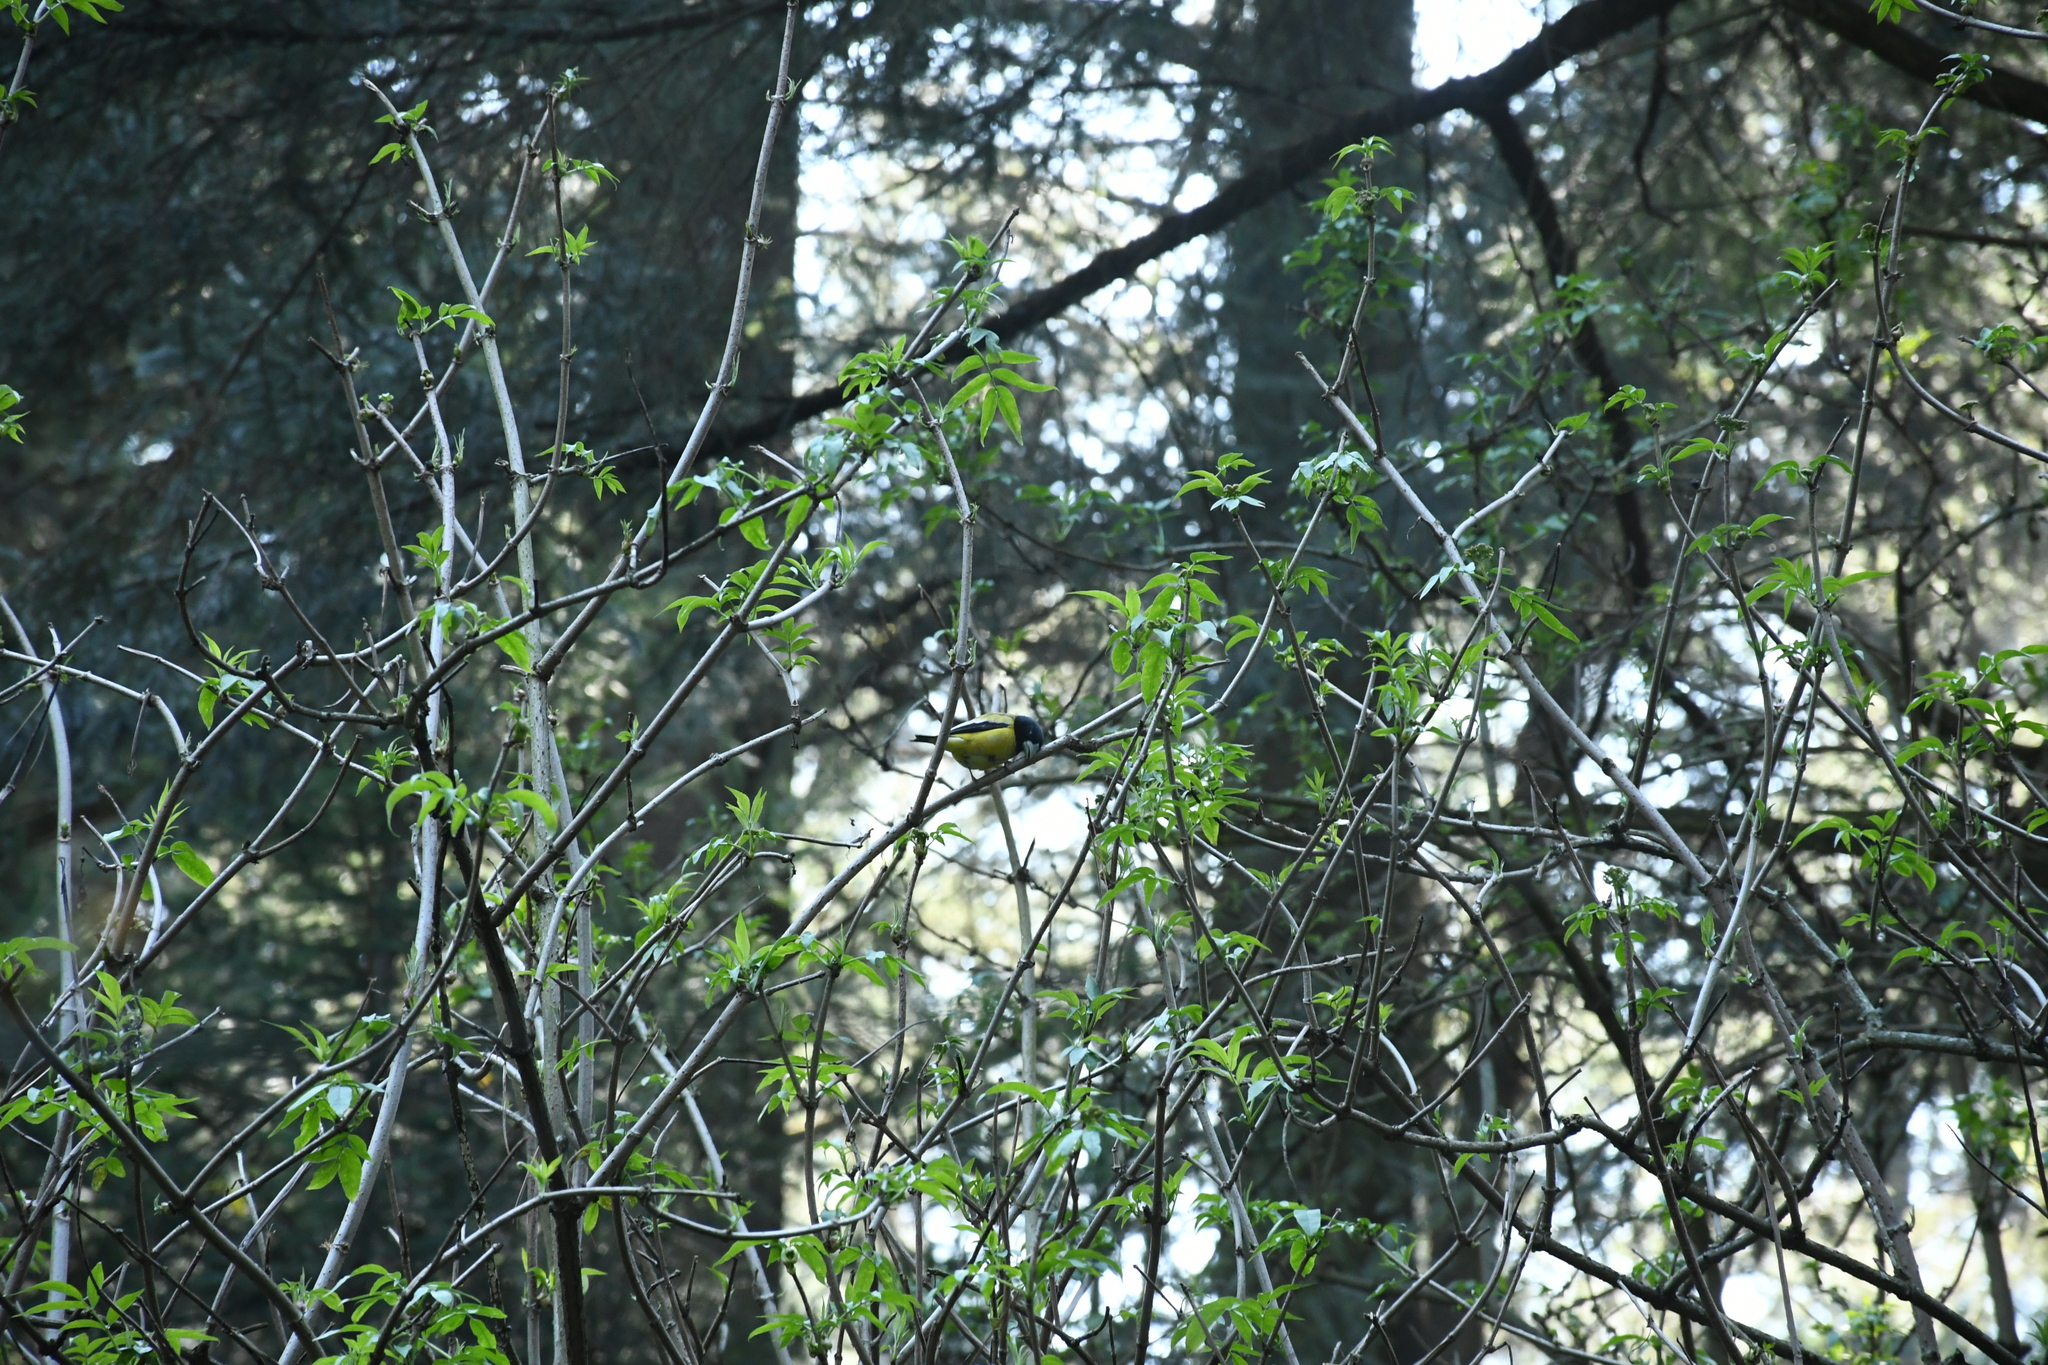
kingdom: Animalia
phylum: Chordata
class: Aves
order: Passeriformes
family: Fringillidae
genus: Hesperiphona
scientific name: Hesperiphona abeillei
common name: Hooded grosbeak
